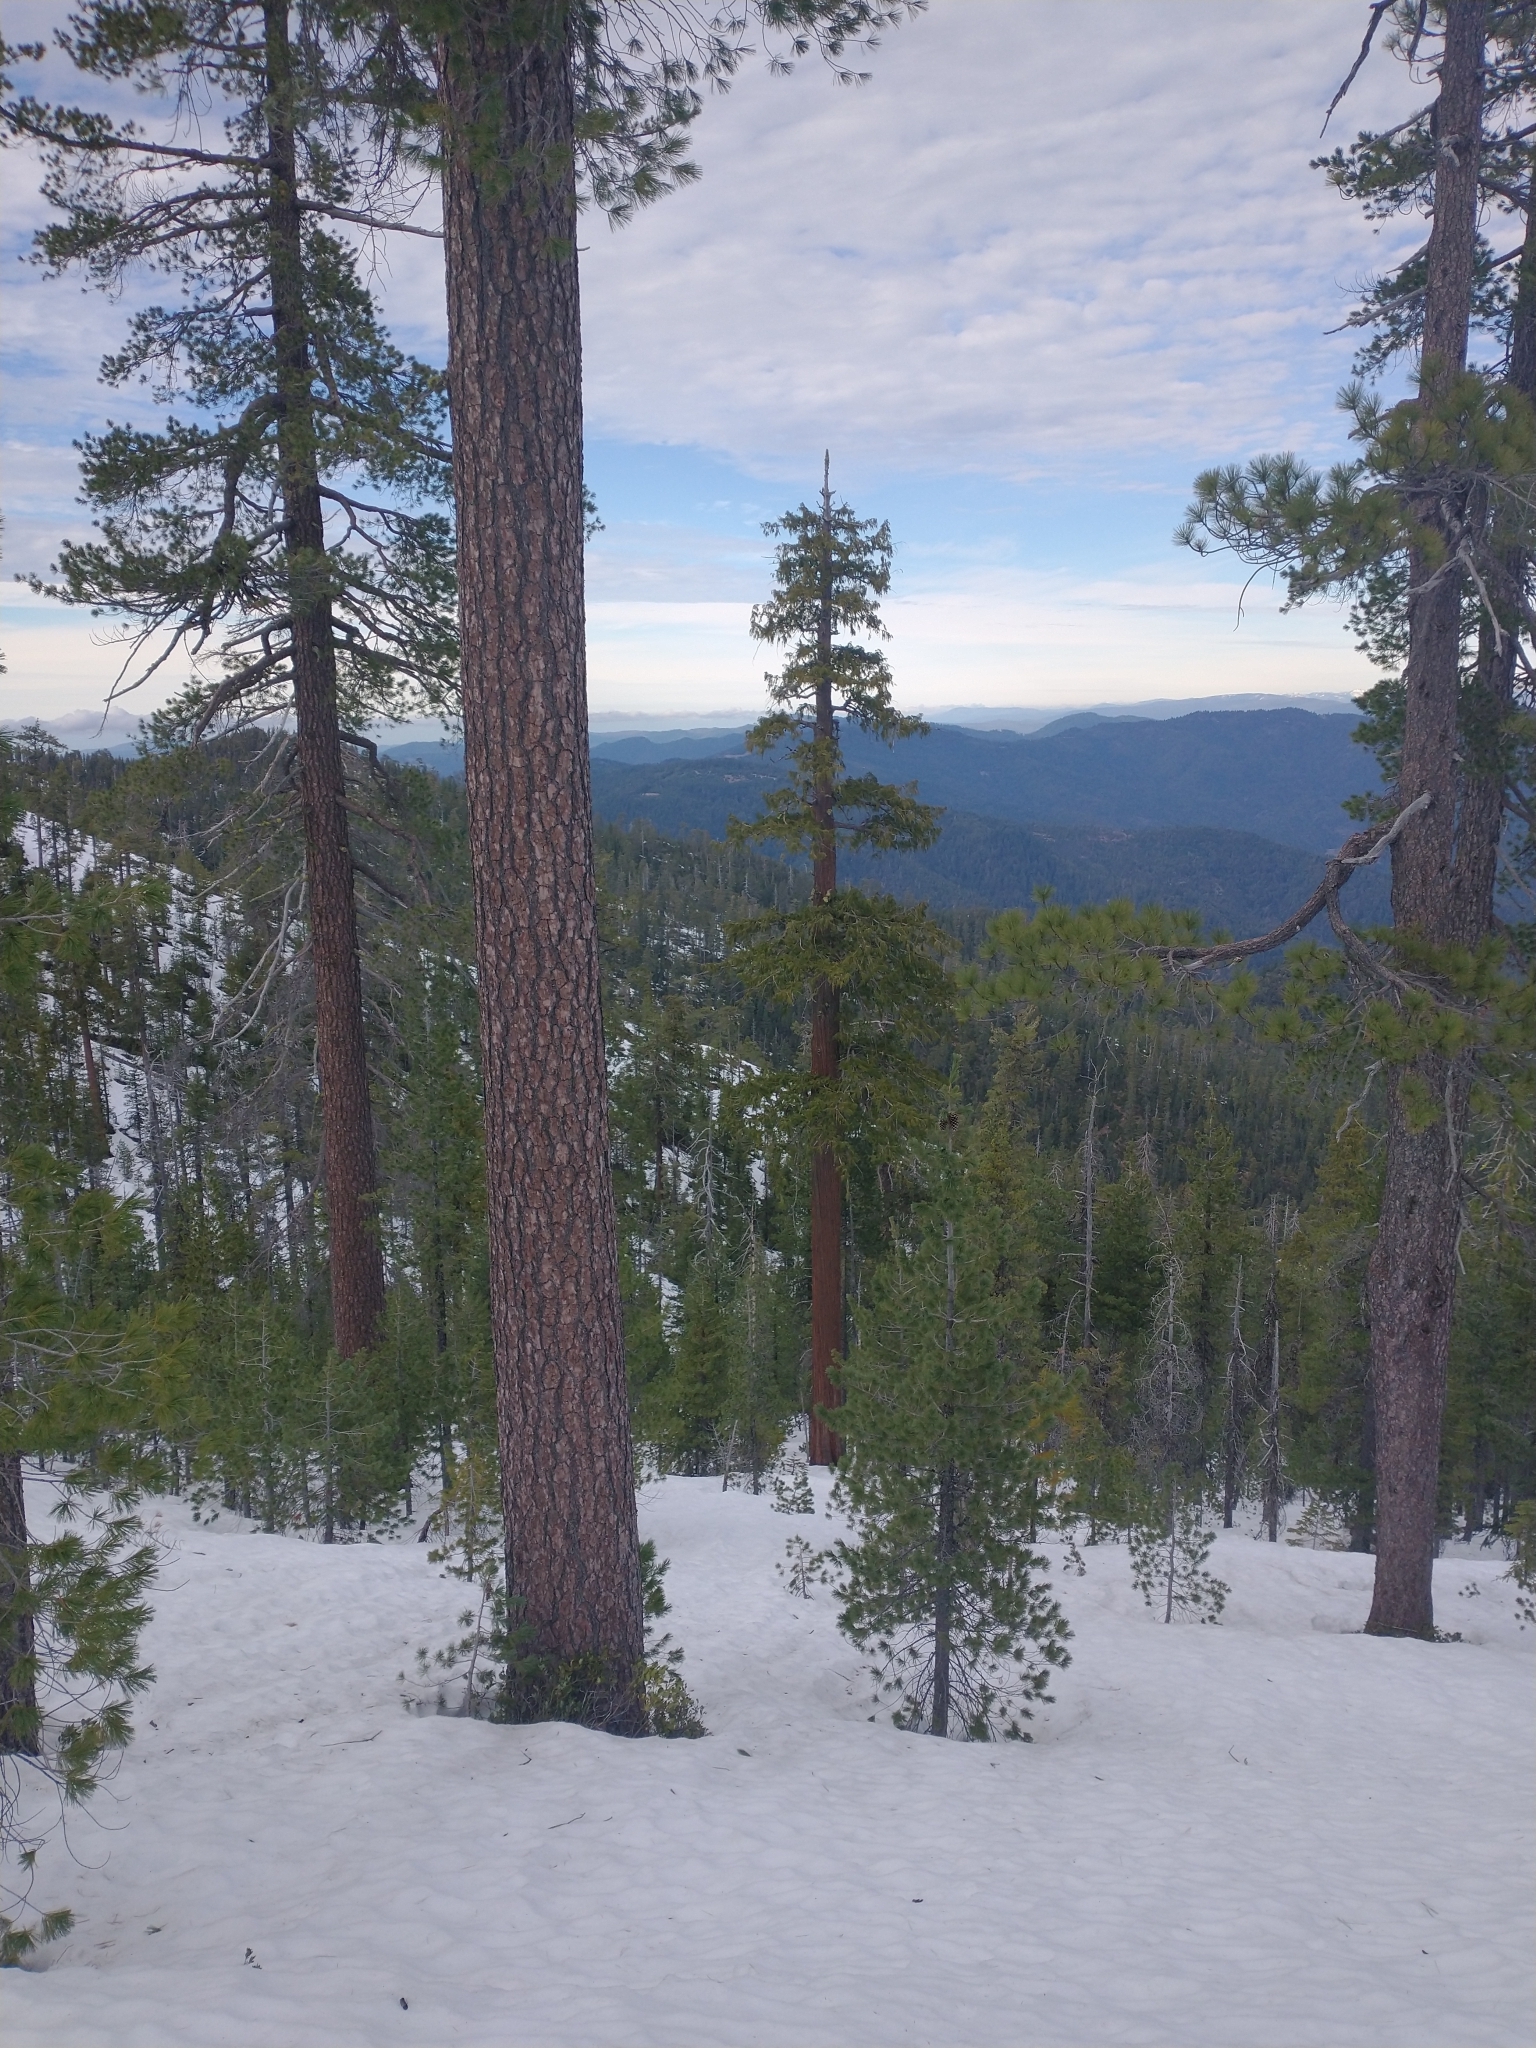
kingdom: Plantae
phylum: Tracheophyta
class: Pinopsida
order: Pinales
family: Cupressaceae
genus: Chamaecyparis
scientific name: Chamaecyparis lawsoniana
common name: Lawson's cypress
